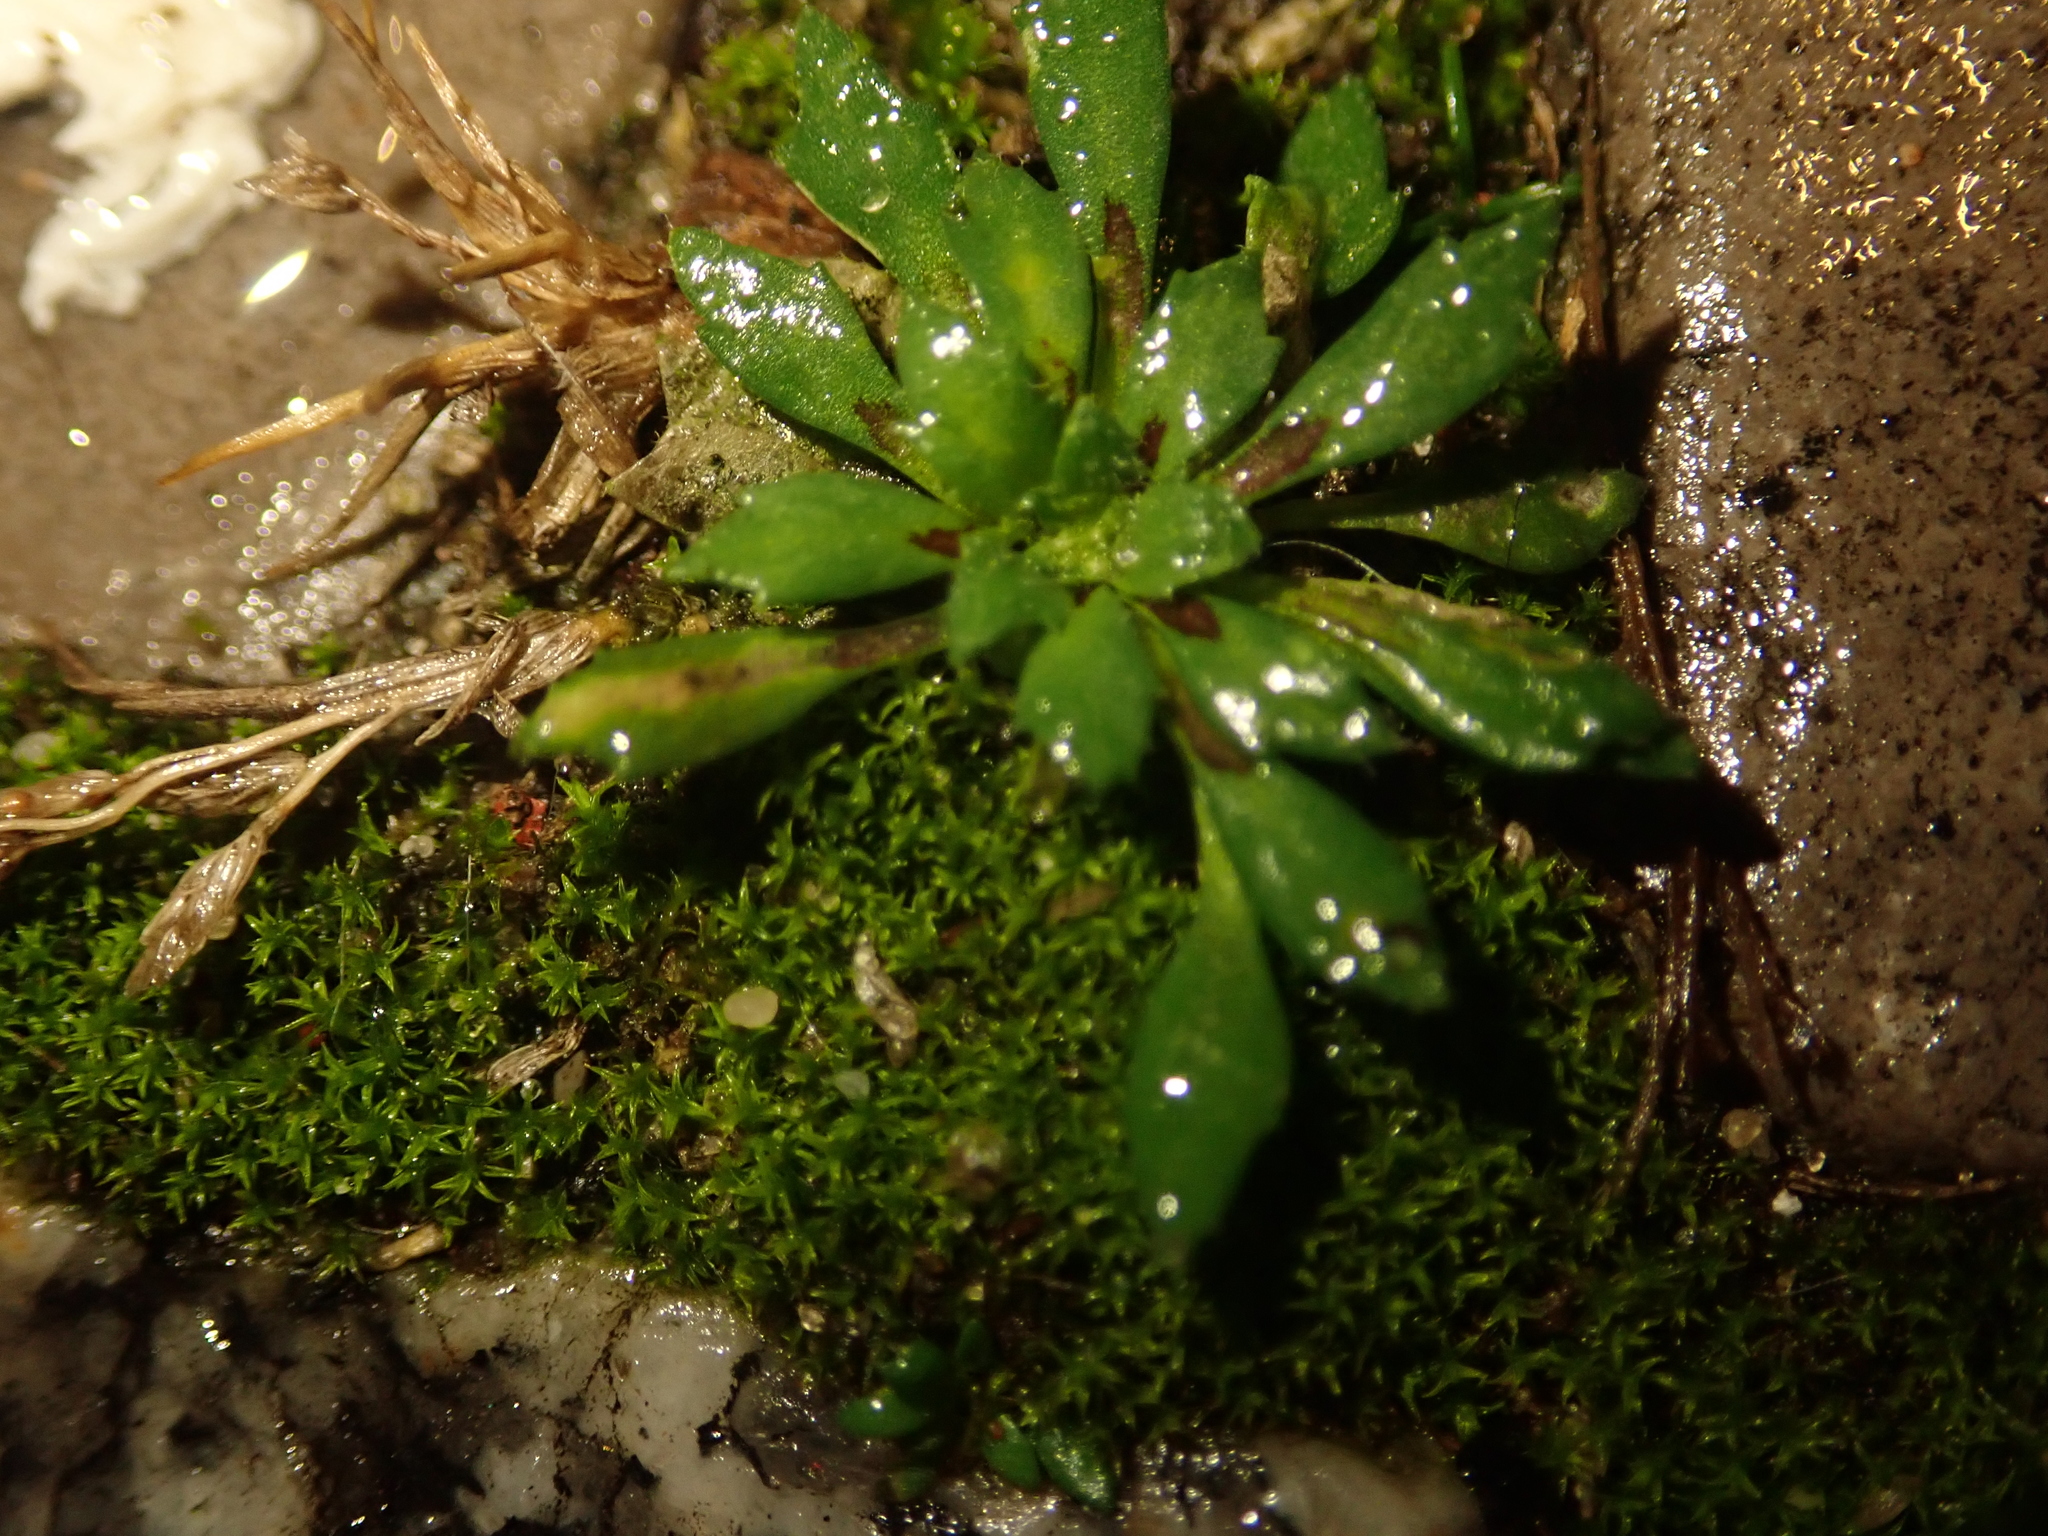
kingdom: Plantae
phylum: Tracheophyta
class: Magnoliopsida
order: Brassicales
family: Brassicaceae
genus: Draba
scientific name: Draba verna
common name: Spring draba
